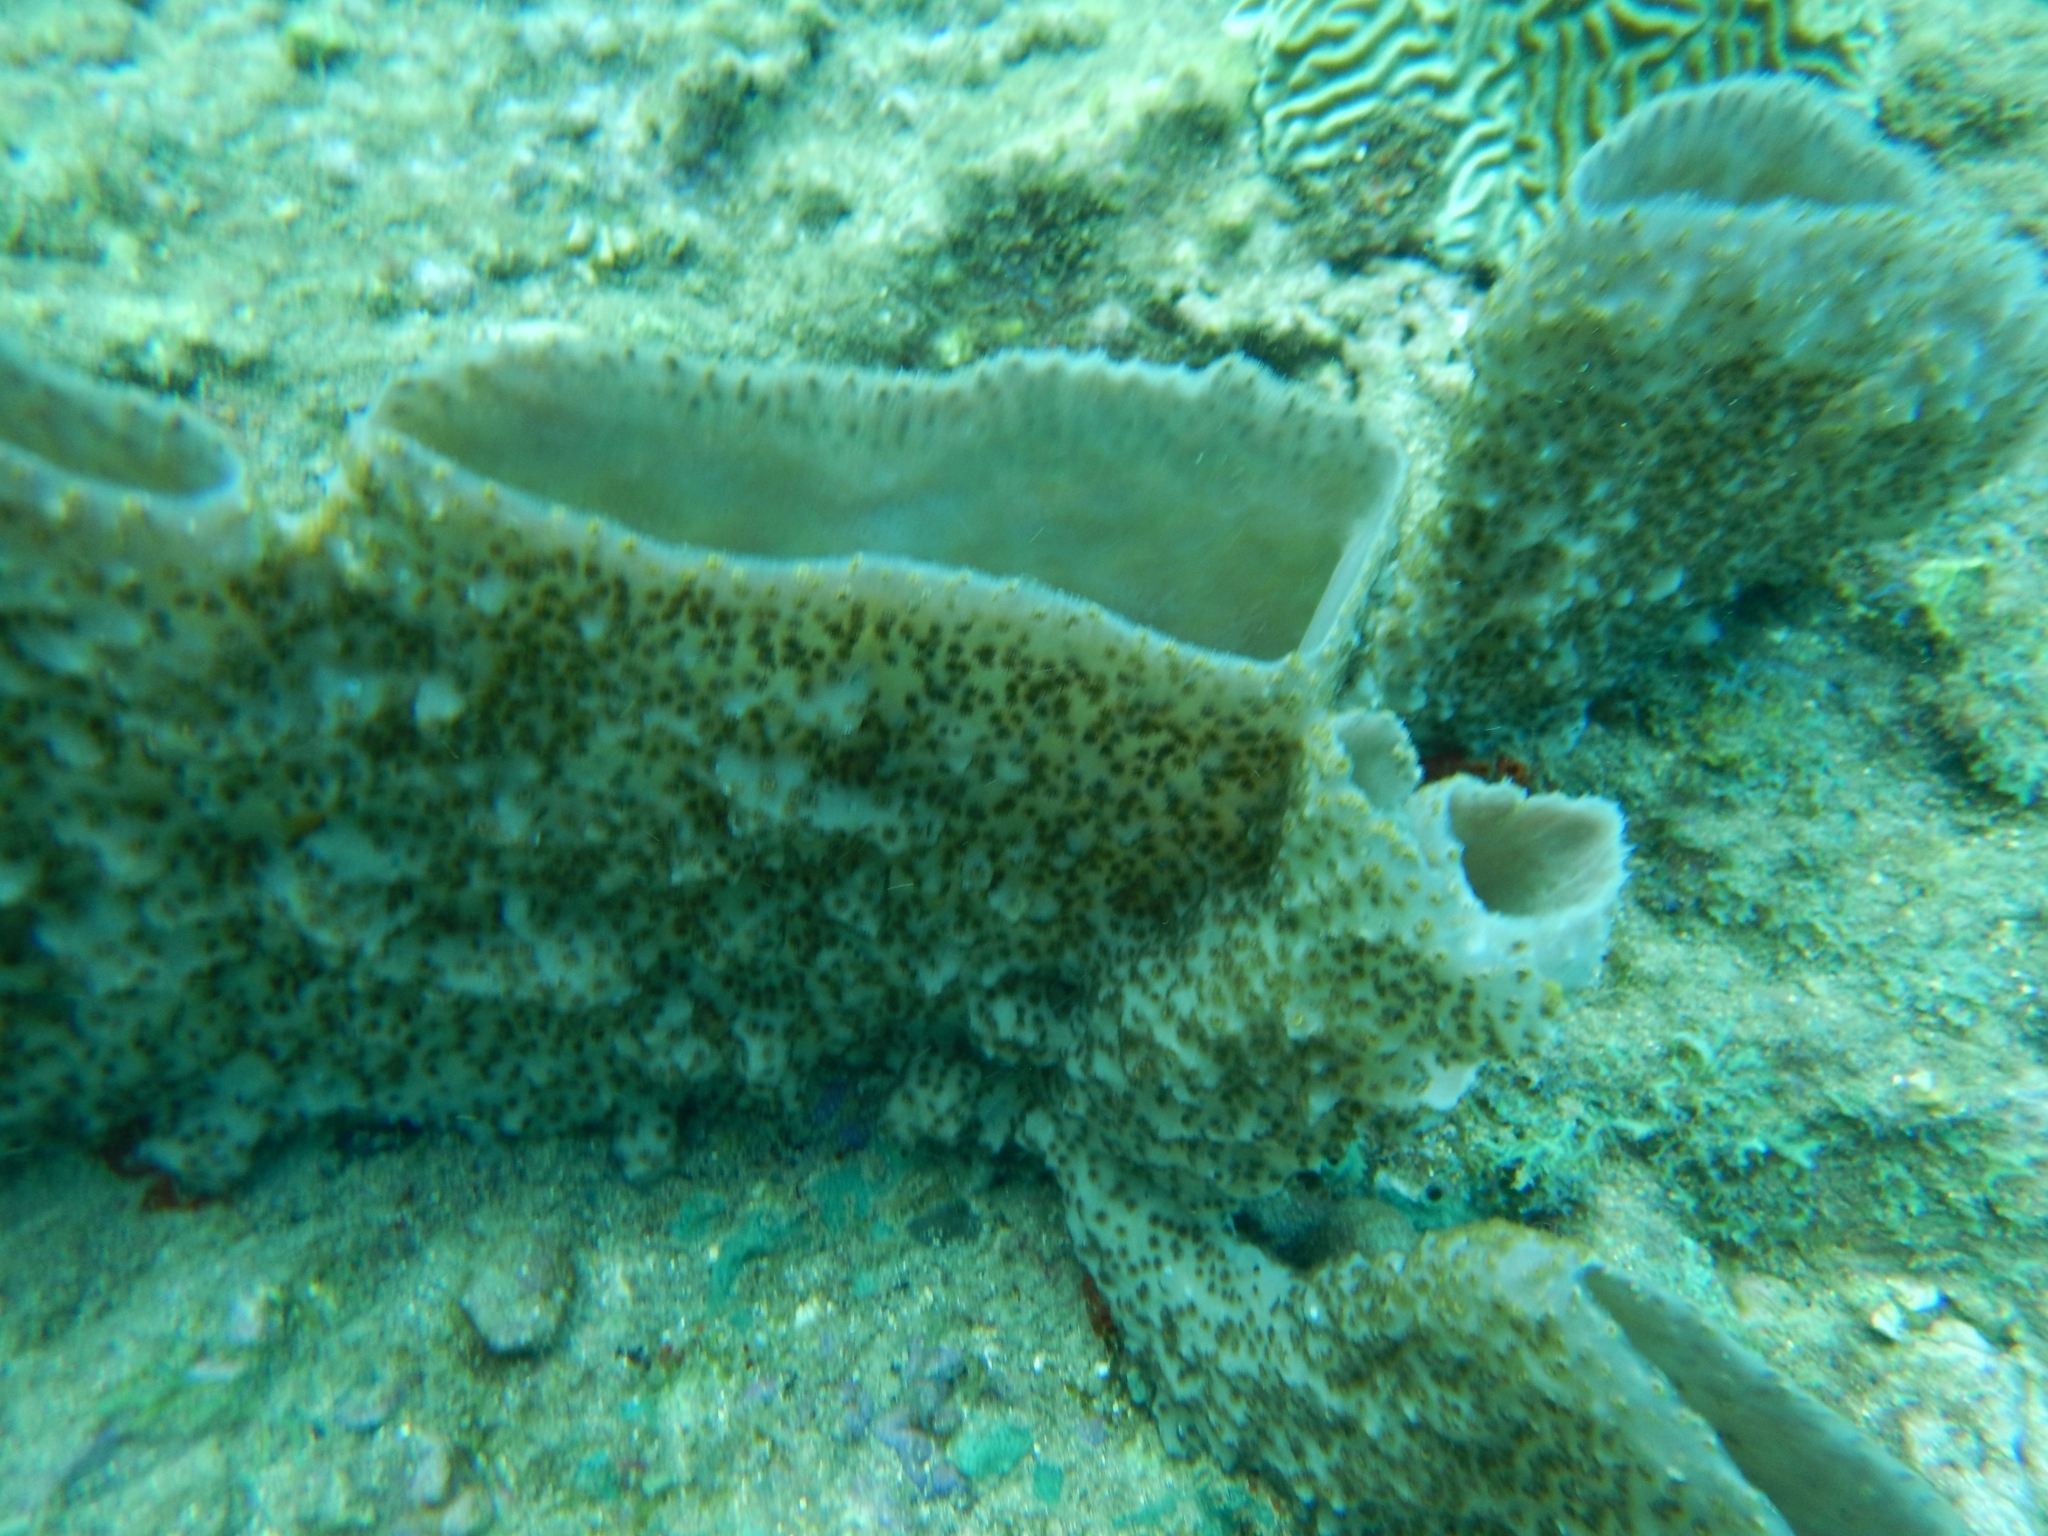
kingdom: Animalia
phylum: Porifera
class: Demospongiae
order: Haplosclerida
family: Callyspongiidae
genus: Callyspongia
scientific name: Callyspongia aculeata
